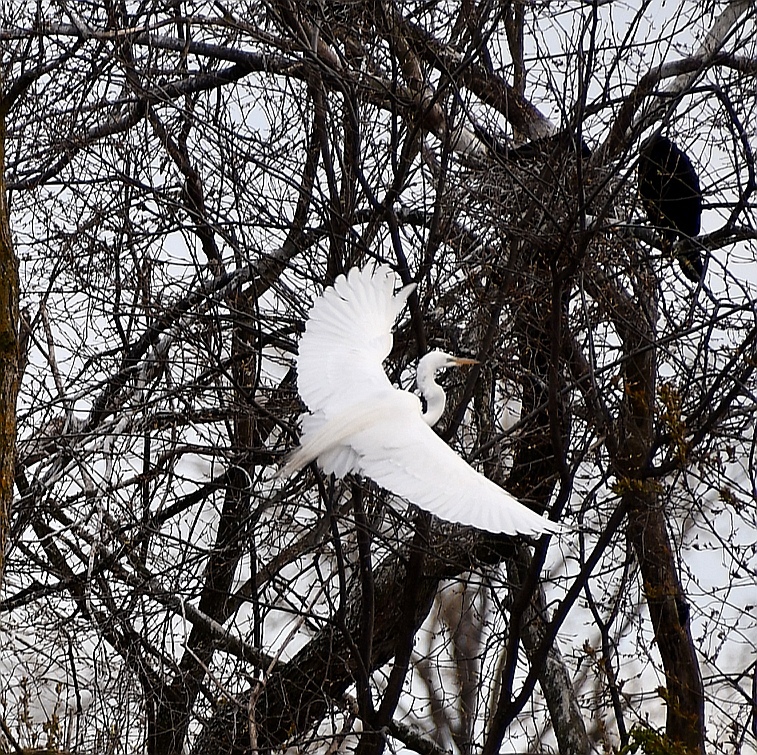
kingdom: Animalia
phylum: Chordata
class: Aves
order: Pelecaniformes
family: Ardeidae
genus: Ardea
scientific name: Ardea alba
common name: Great egret
